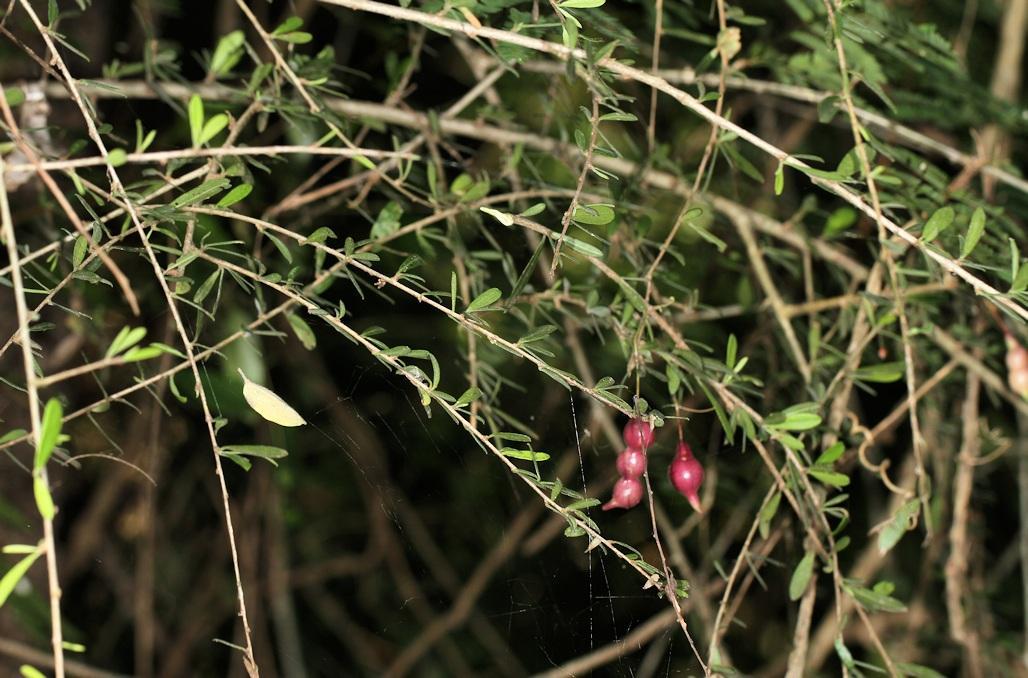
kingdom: Plantae
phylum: Tracheophyta
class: Magnoliopsida
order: Brassicales
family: Capparaceae
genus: Maerua
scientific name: Maerua parvifolia
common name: Dwarf bush-cherry
